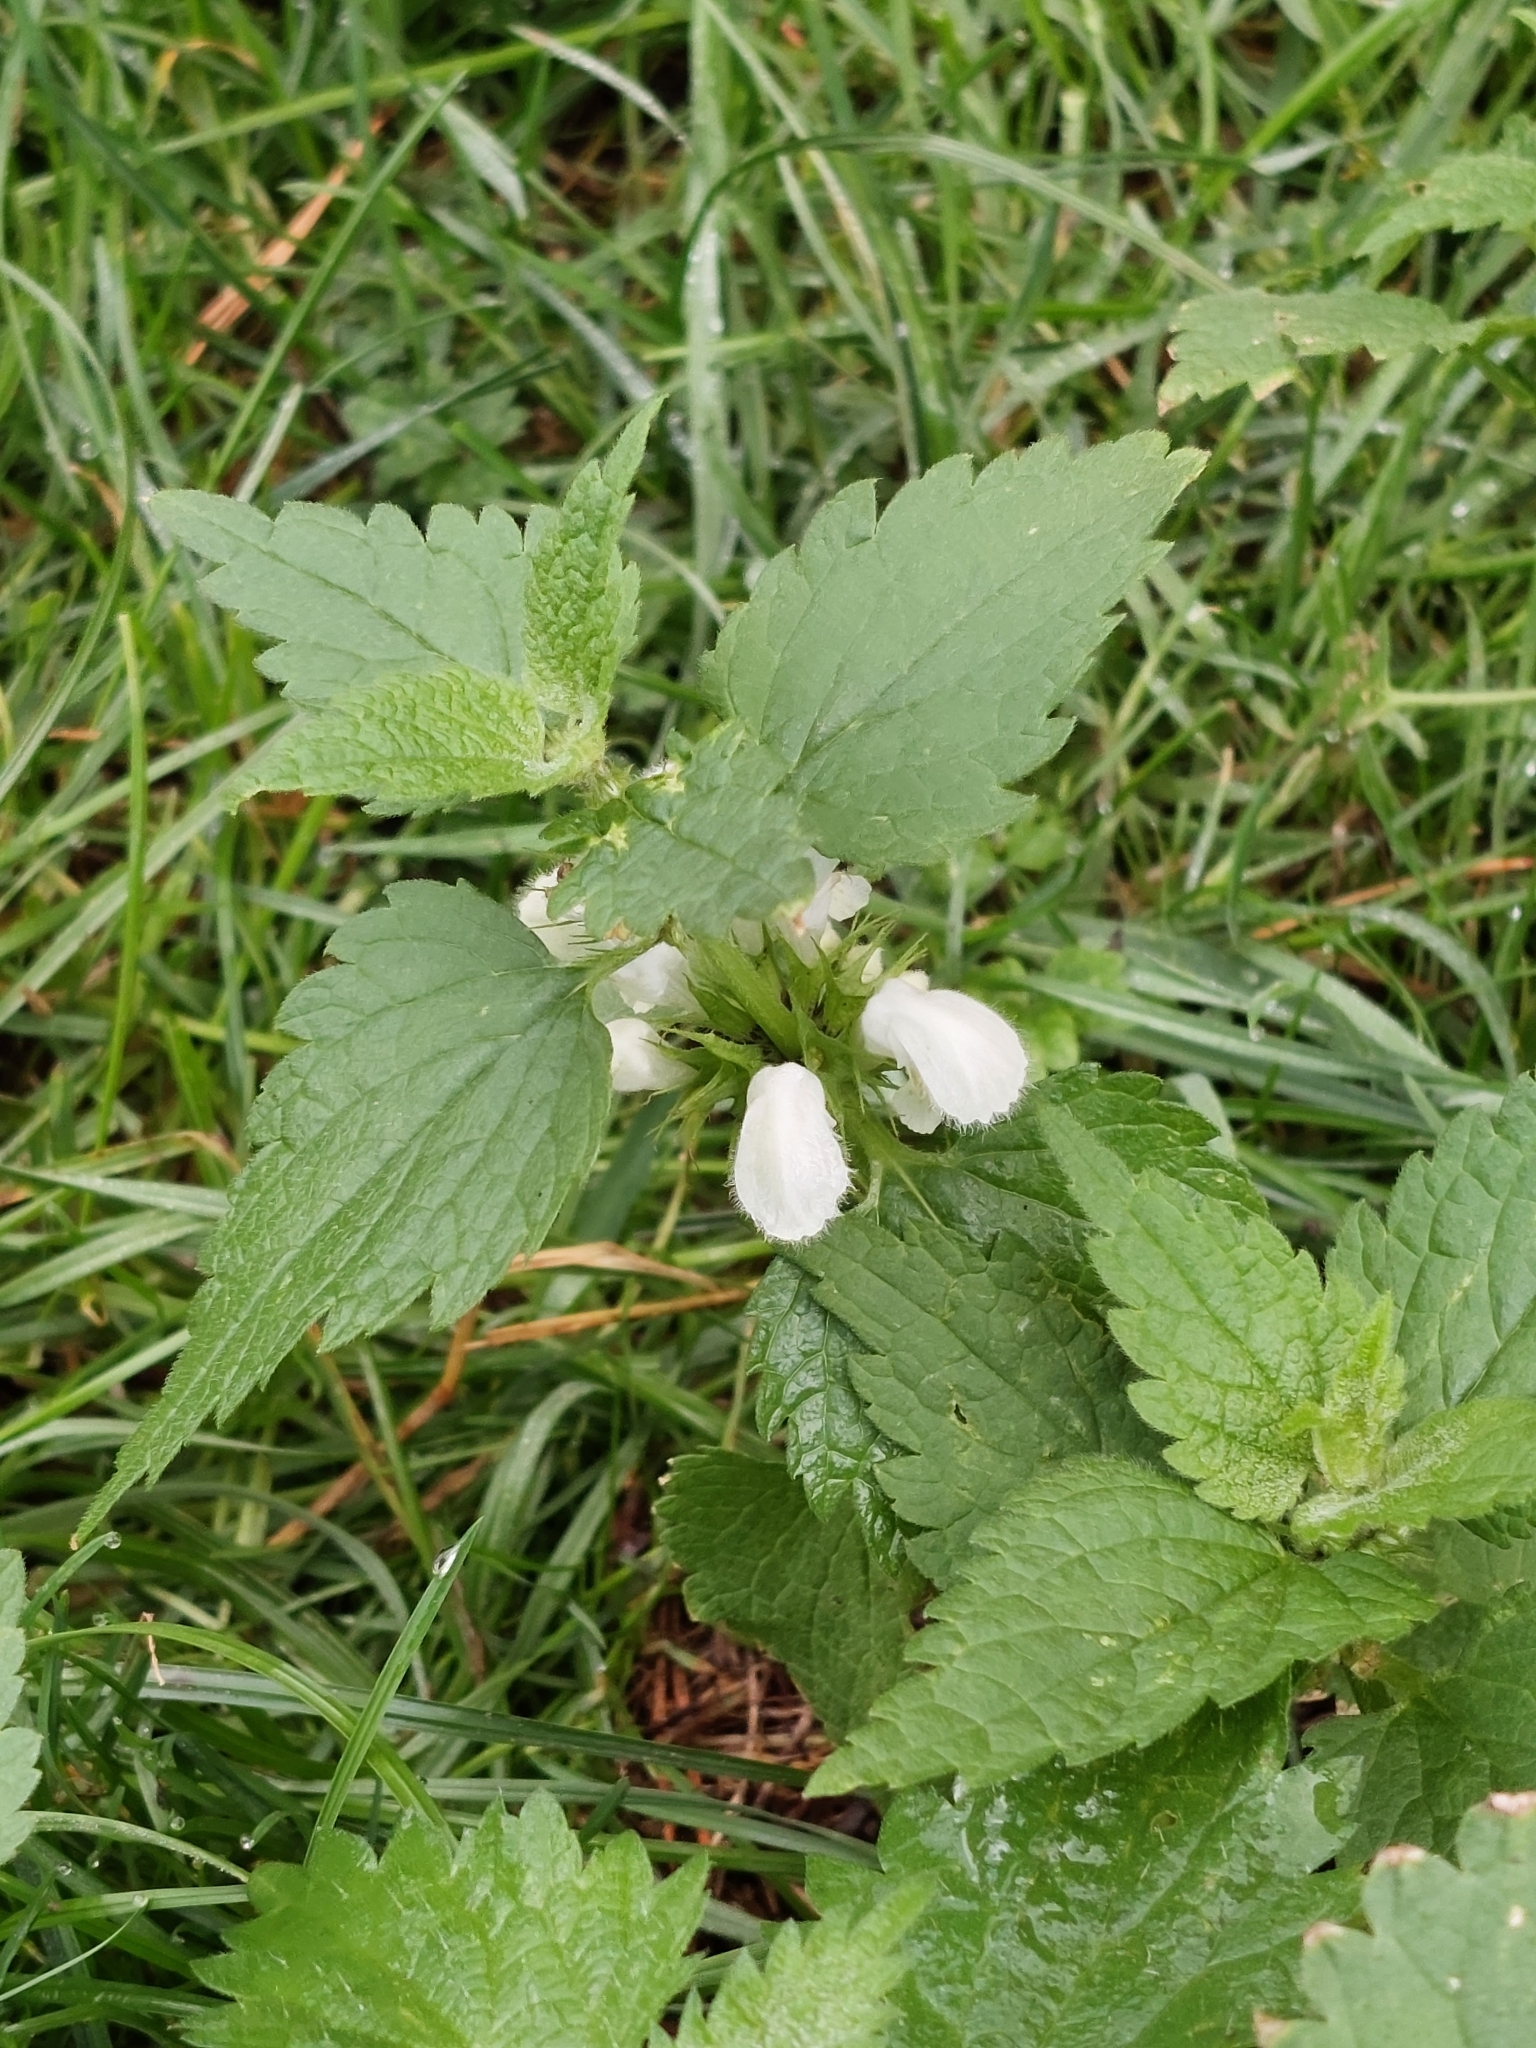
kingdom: Plantae
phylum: Tracheophyta
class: Magnoliopsida
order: Lamiales
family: Lamiaceae
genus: Lamium
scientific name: Lamium album
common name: White dead-nettle
